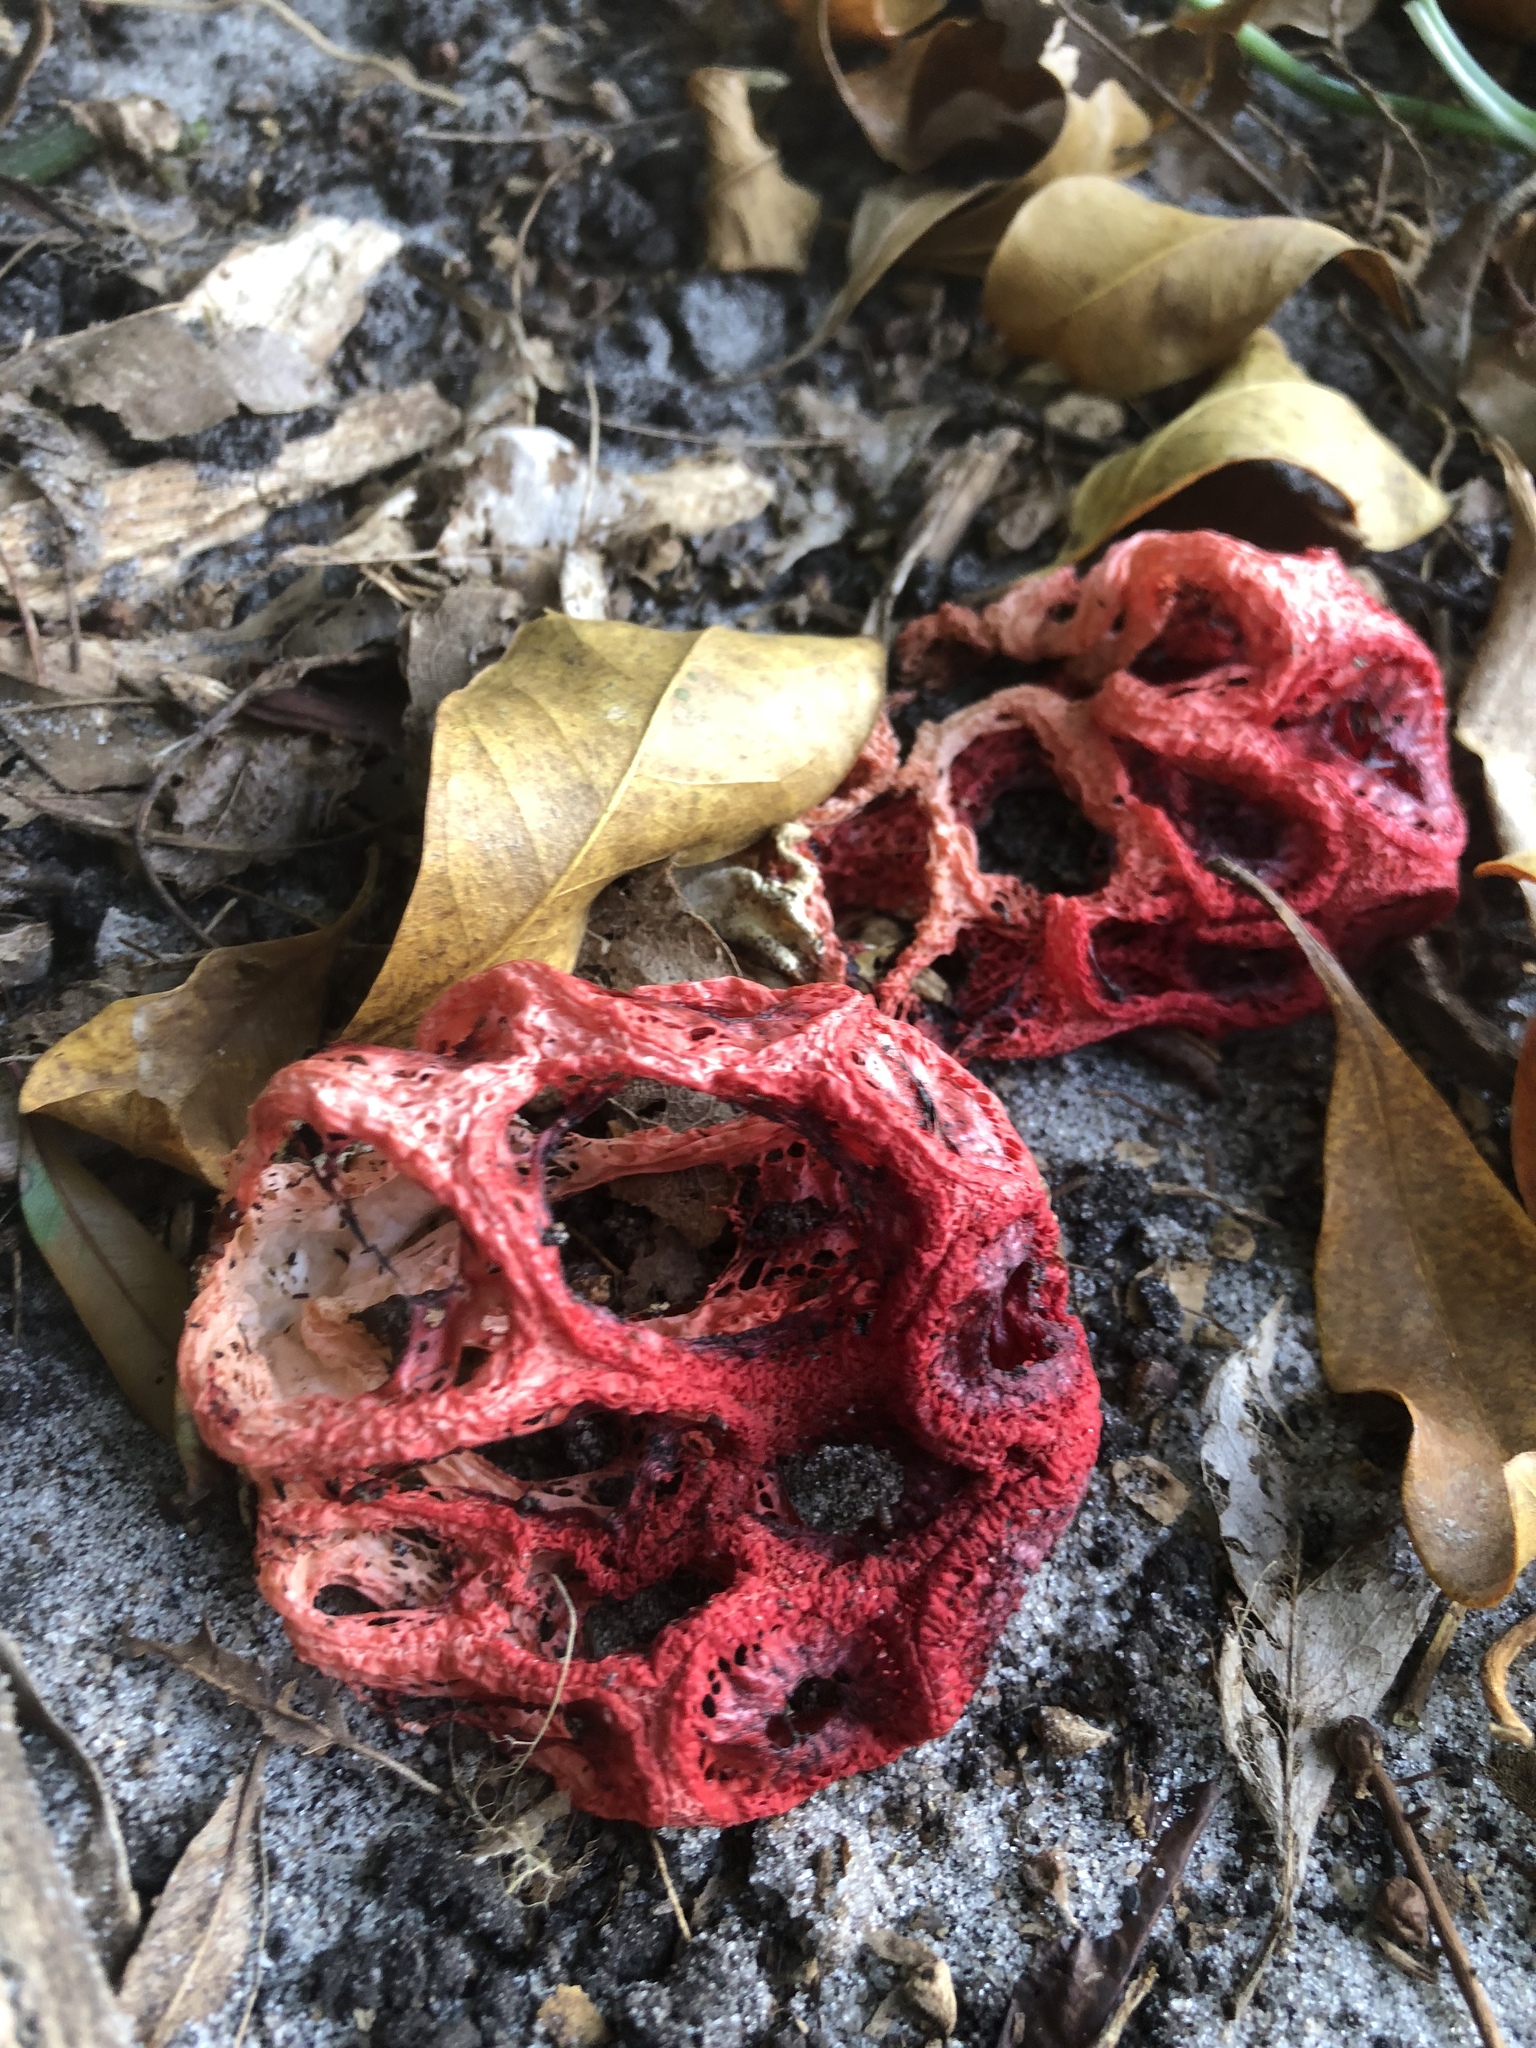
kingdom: Fungi
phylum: Basidiomycota
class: Agaricomycetes
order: Phallales
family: Phallaceae
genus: Clathrus
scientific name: Clathrus crispatus
